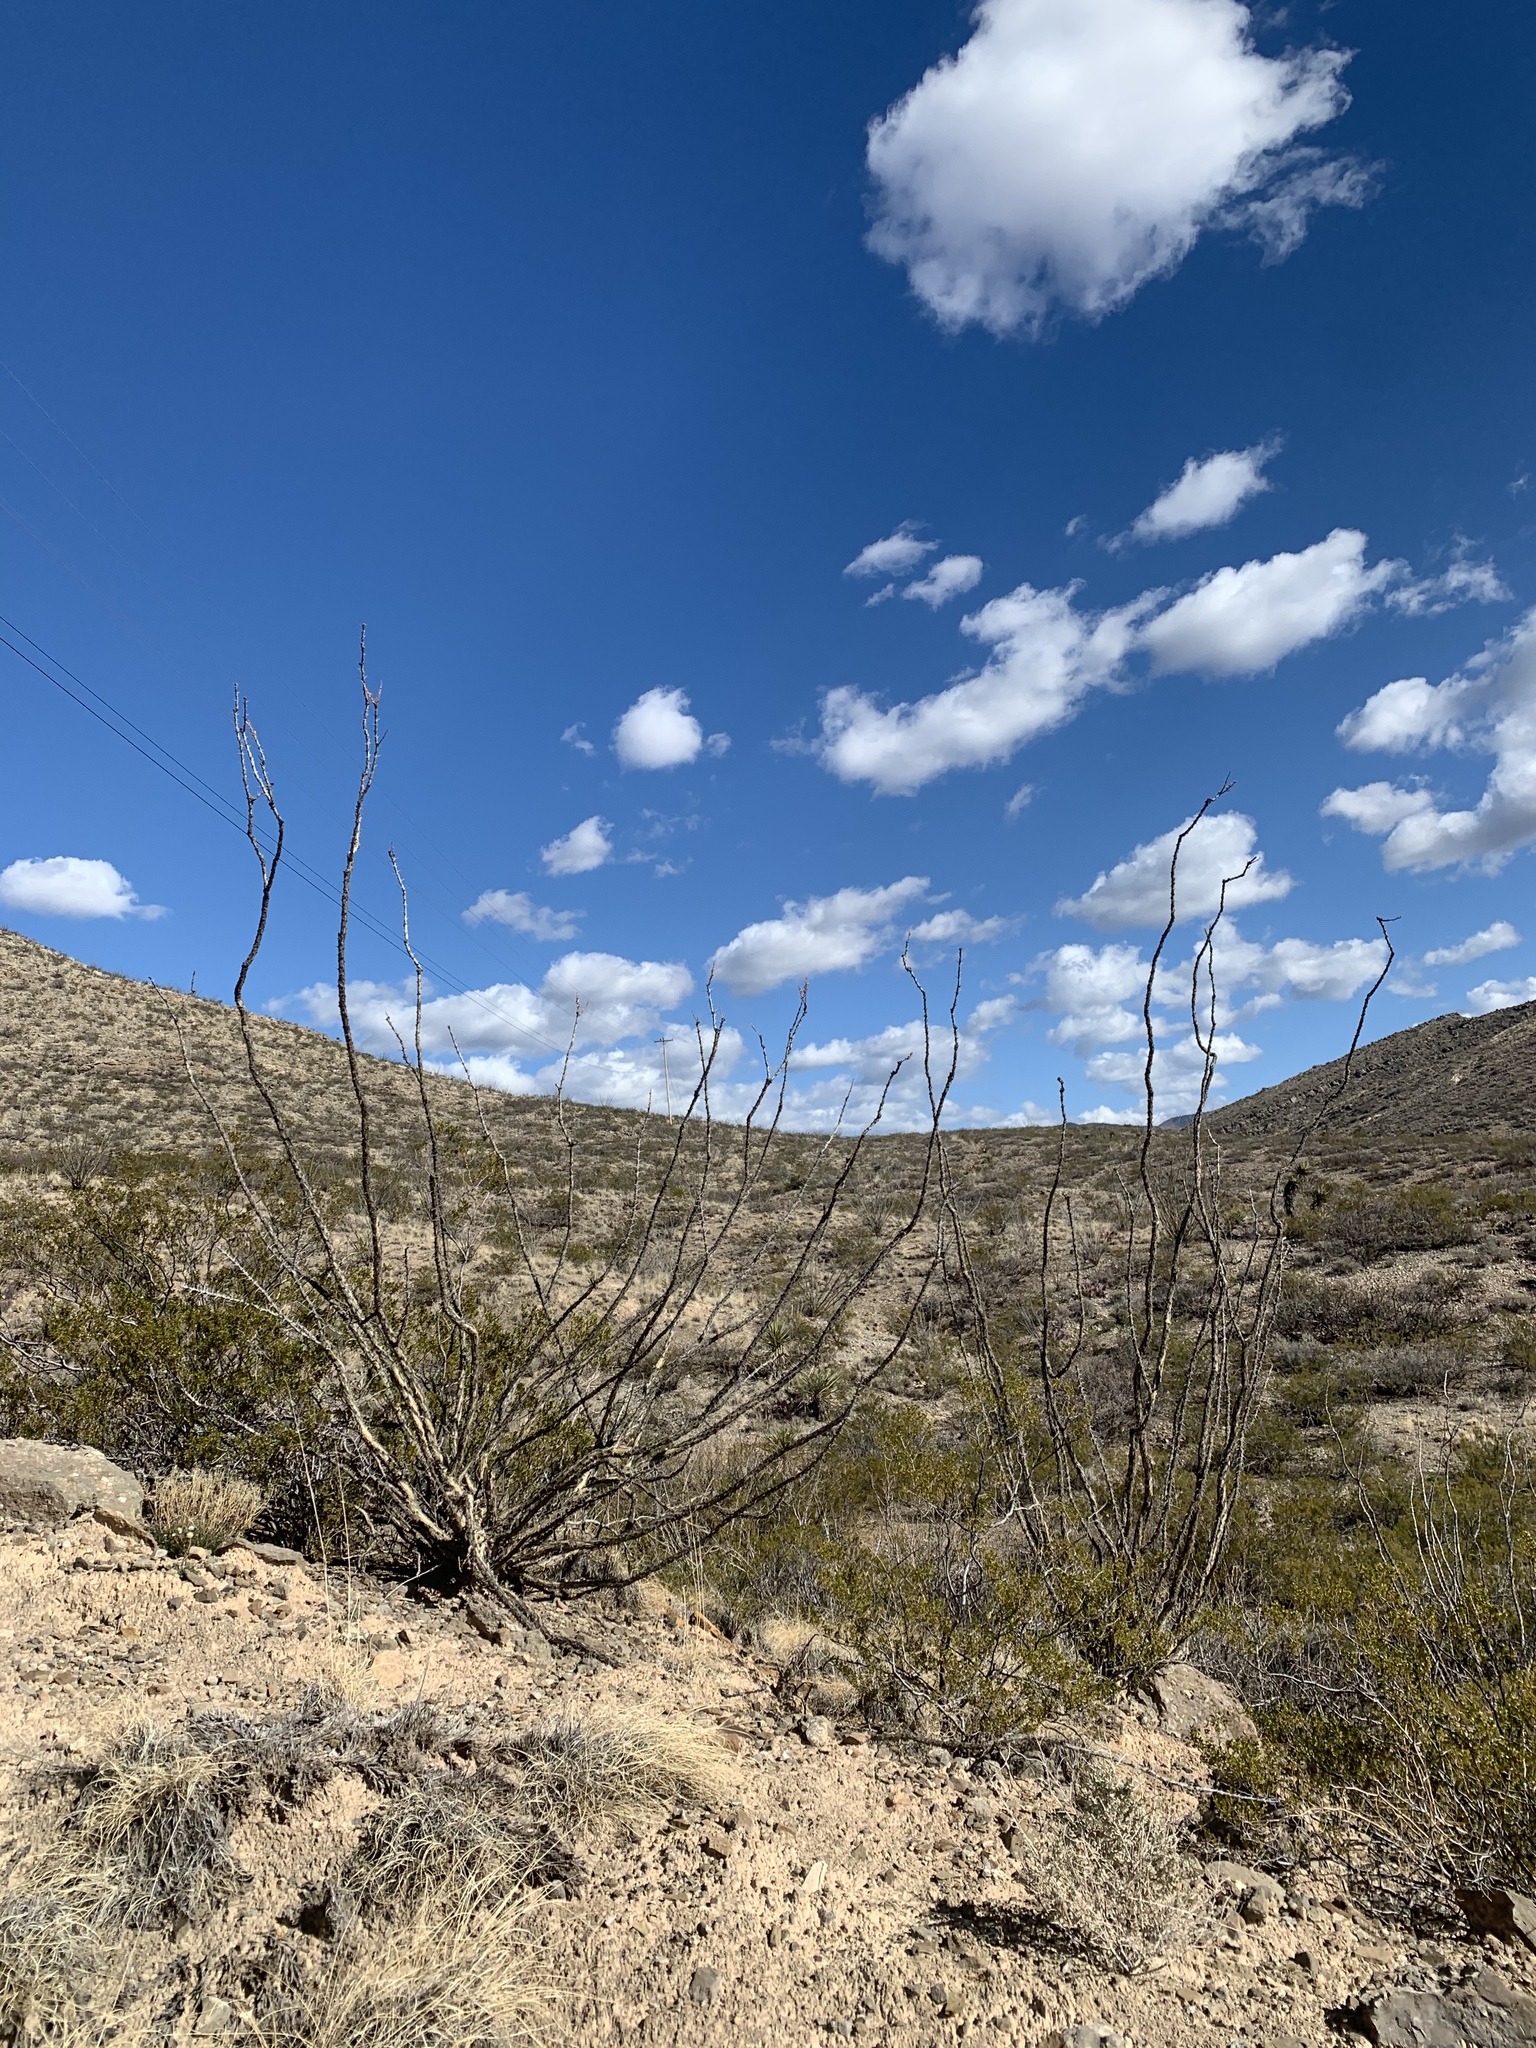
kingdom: Plantae
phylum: Tracheophyta
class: Magnoliopsida
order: Ericales
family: Fouquieriaceae
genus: Fouquieria
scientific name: Fouquieria splendens
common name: Vine-cactus
